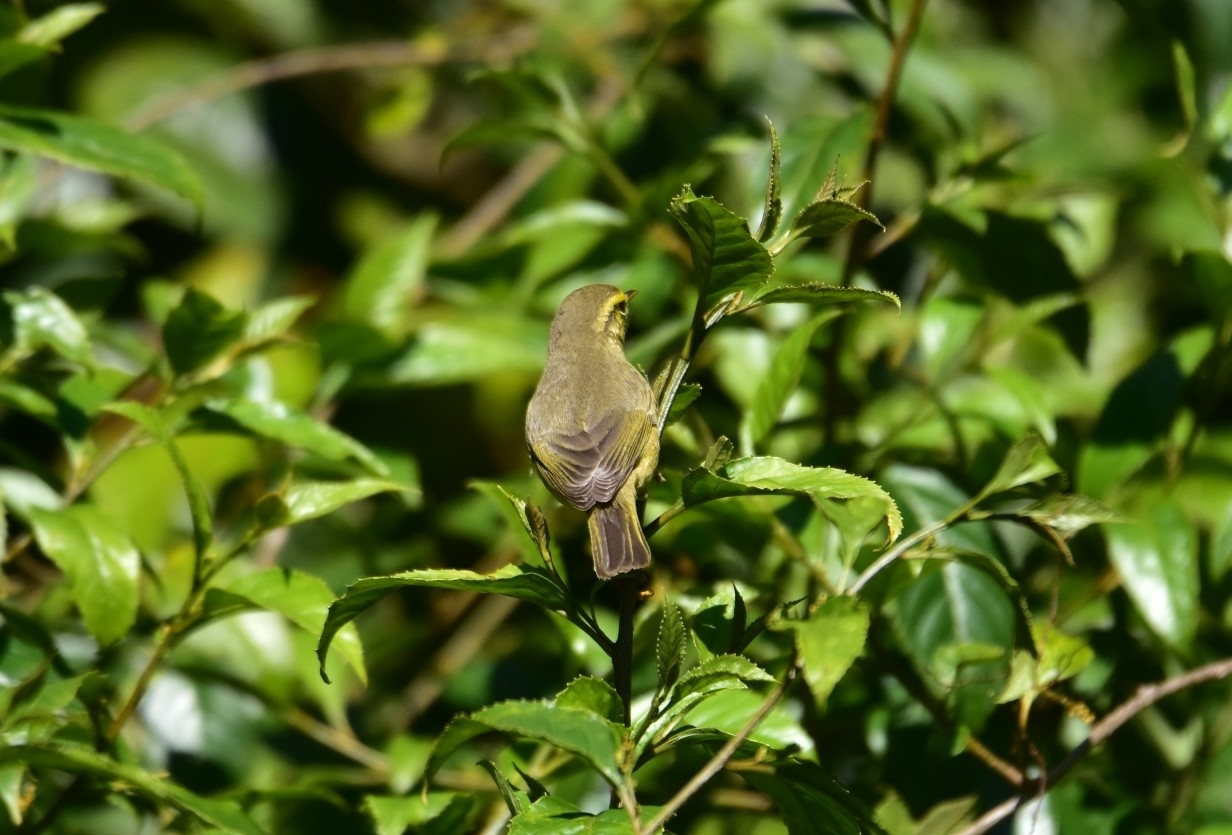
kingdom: Animalia
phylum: Chordata
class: Aves
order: Passeriformes
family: Phylloscopidae
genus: Phylloscopus
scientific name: Phylloscopus trochiloides
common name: Greenish warbler
